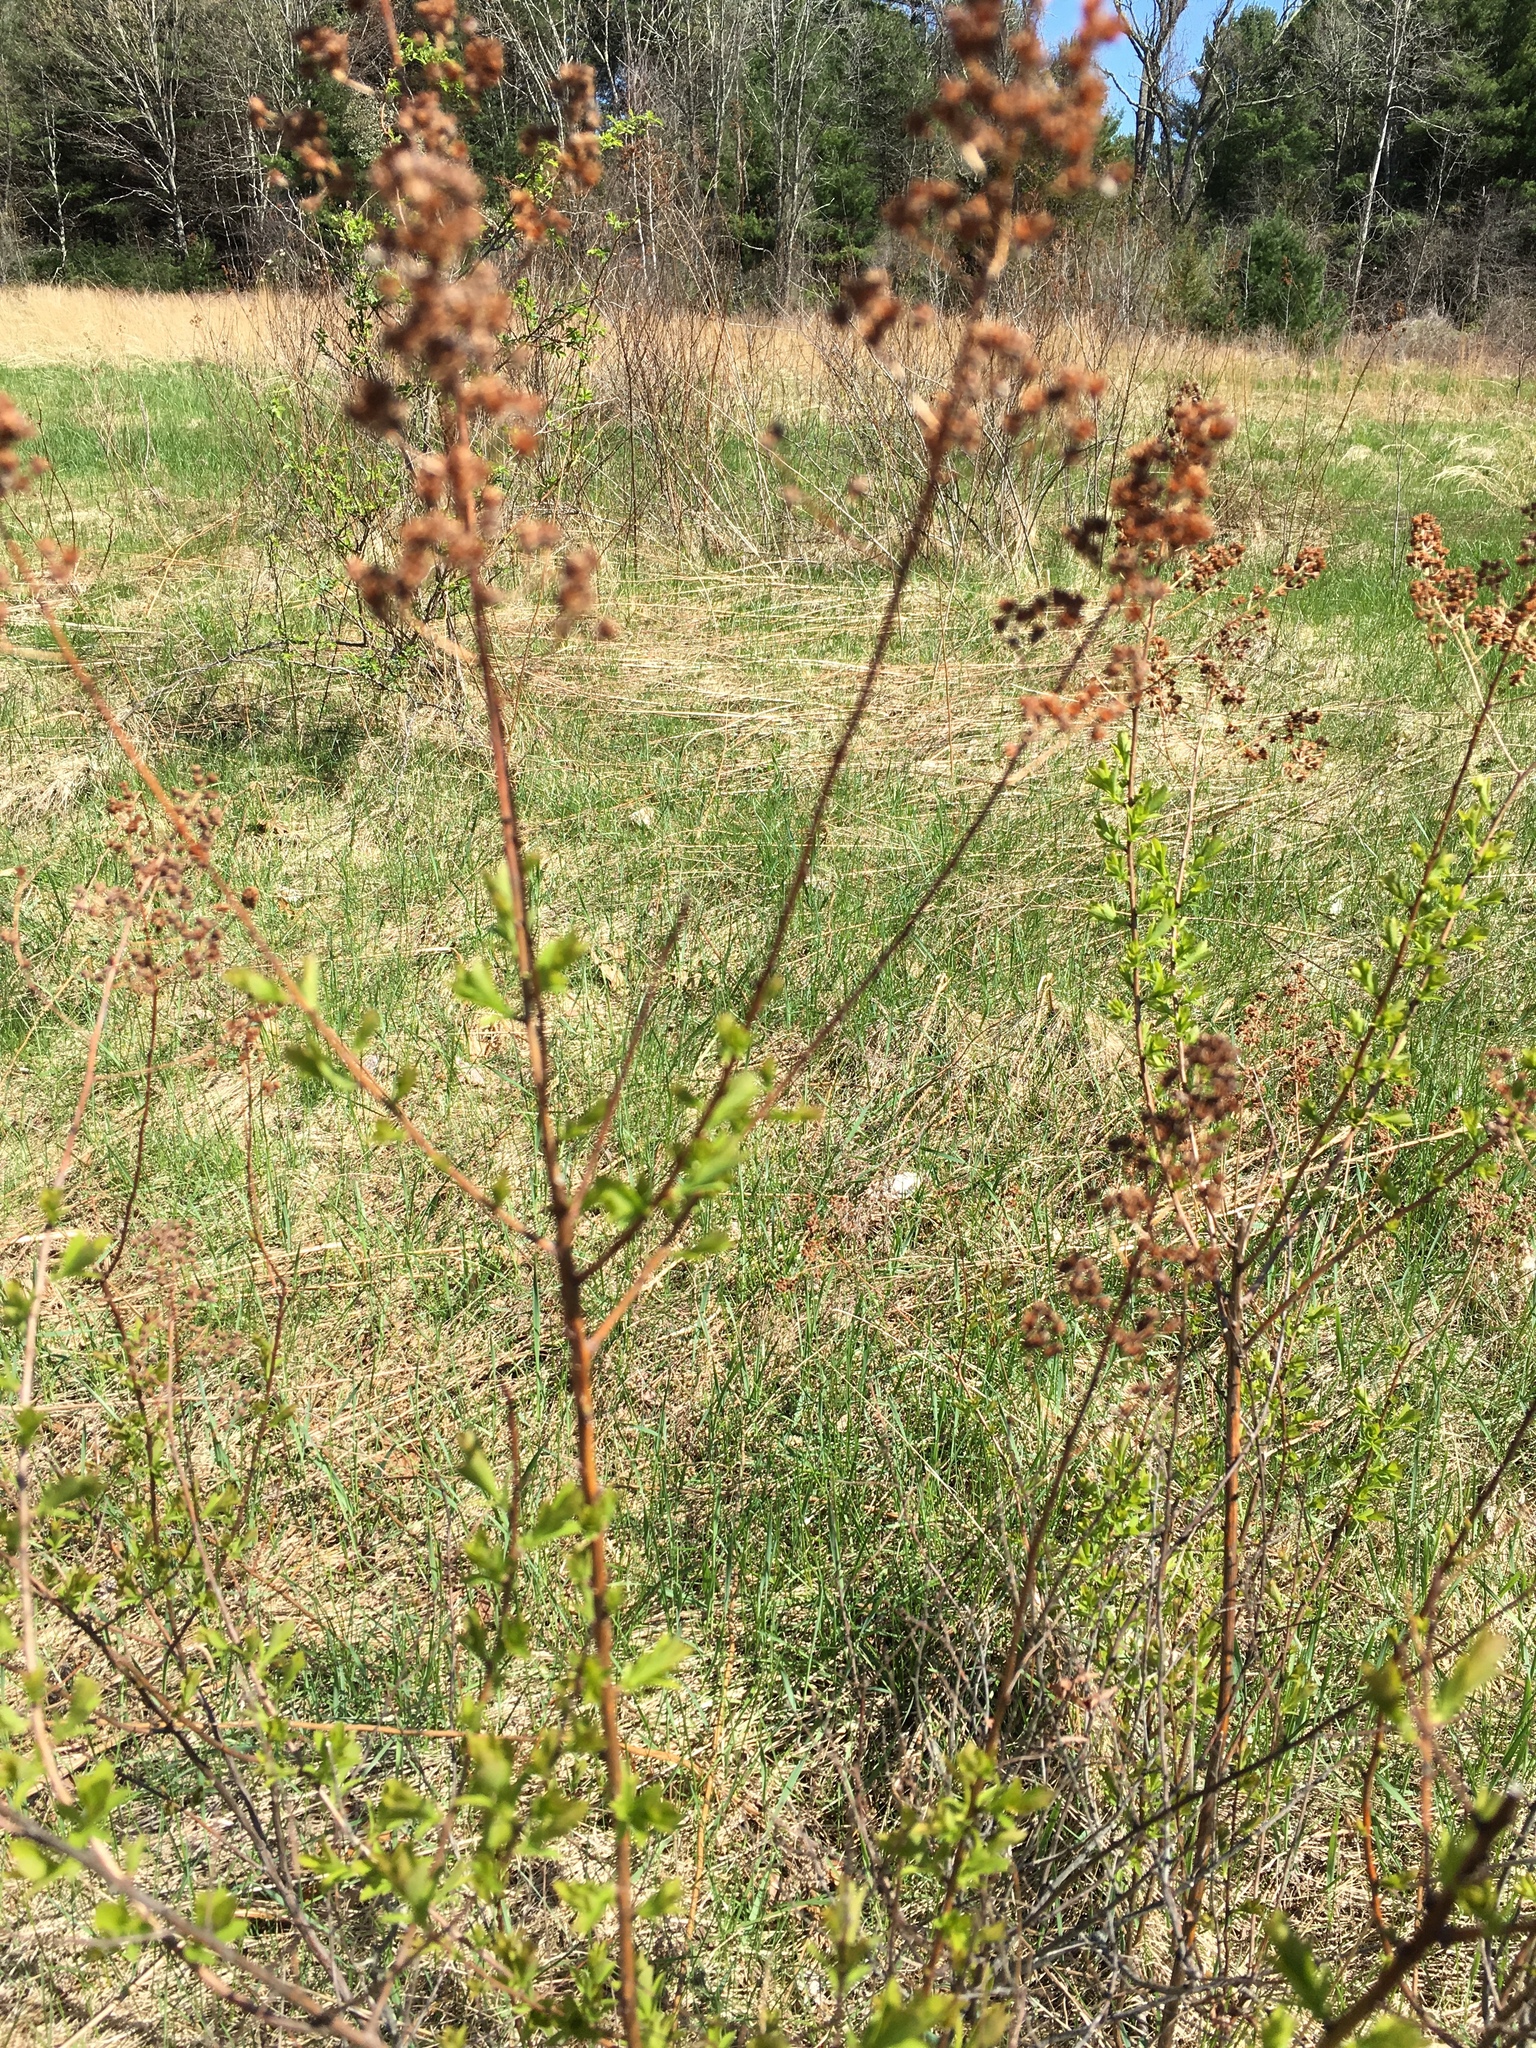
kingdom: Plantae
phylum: Tracheophyta
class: Magnoliopsida
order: Rosales
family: Rosaceae
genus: Spiraea
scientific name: Spiraea alba
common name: Pale bridewort
